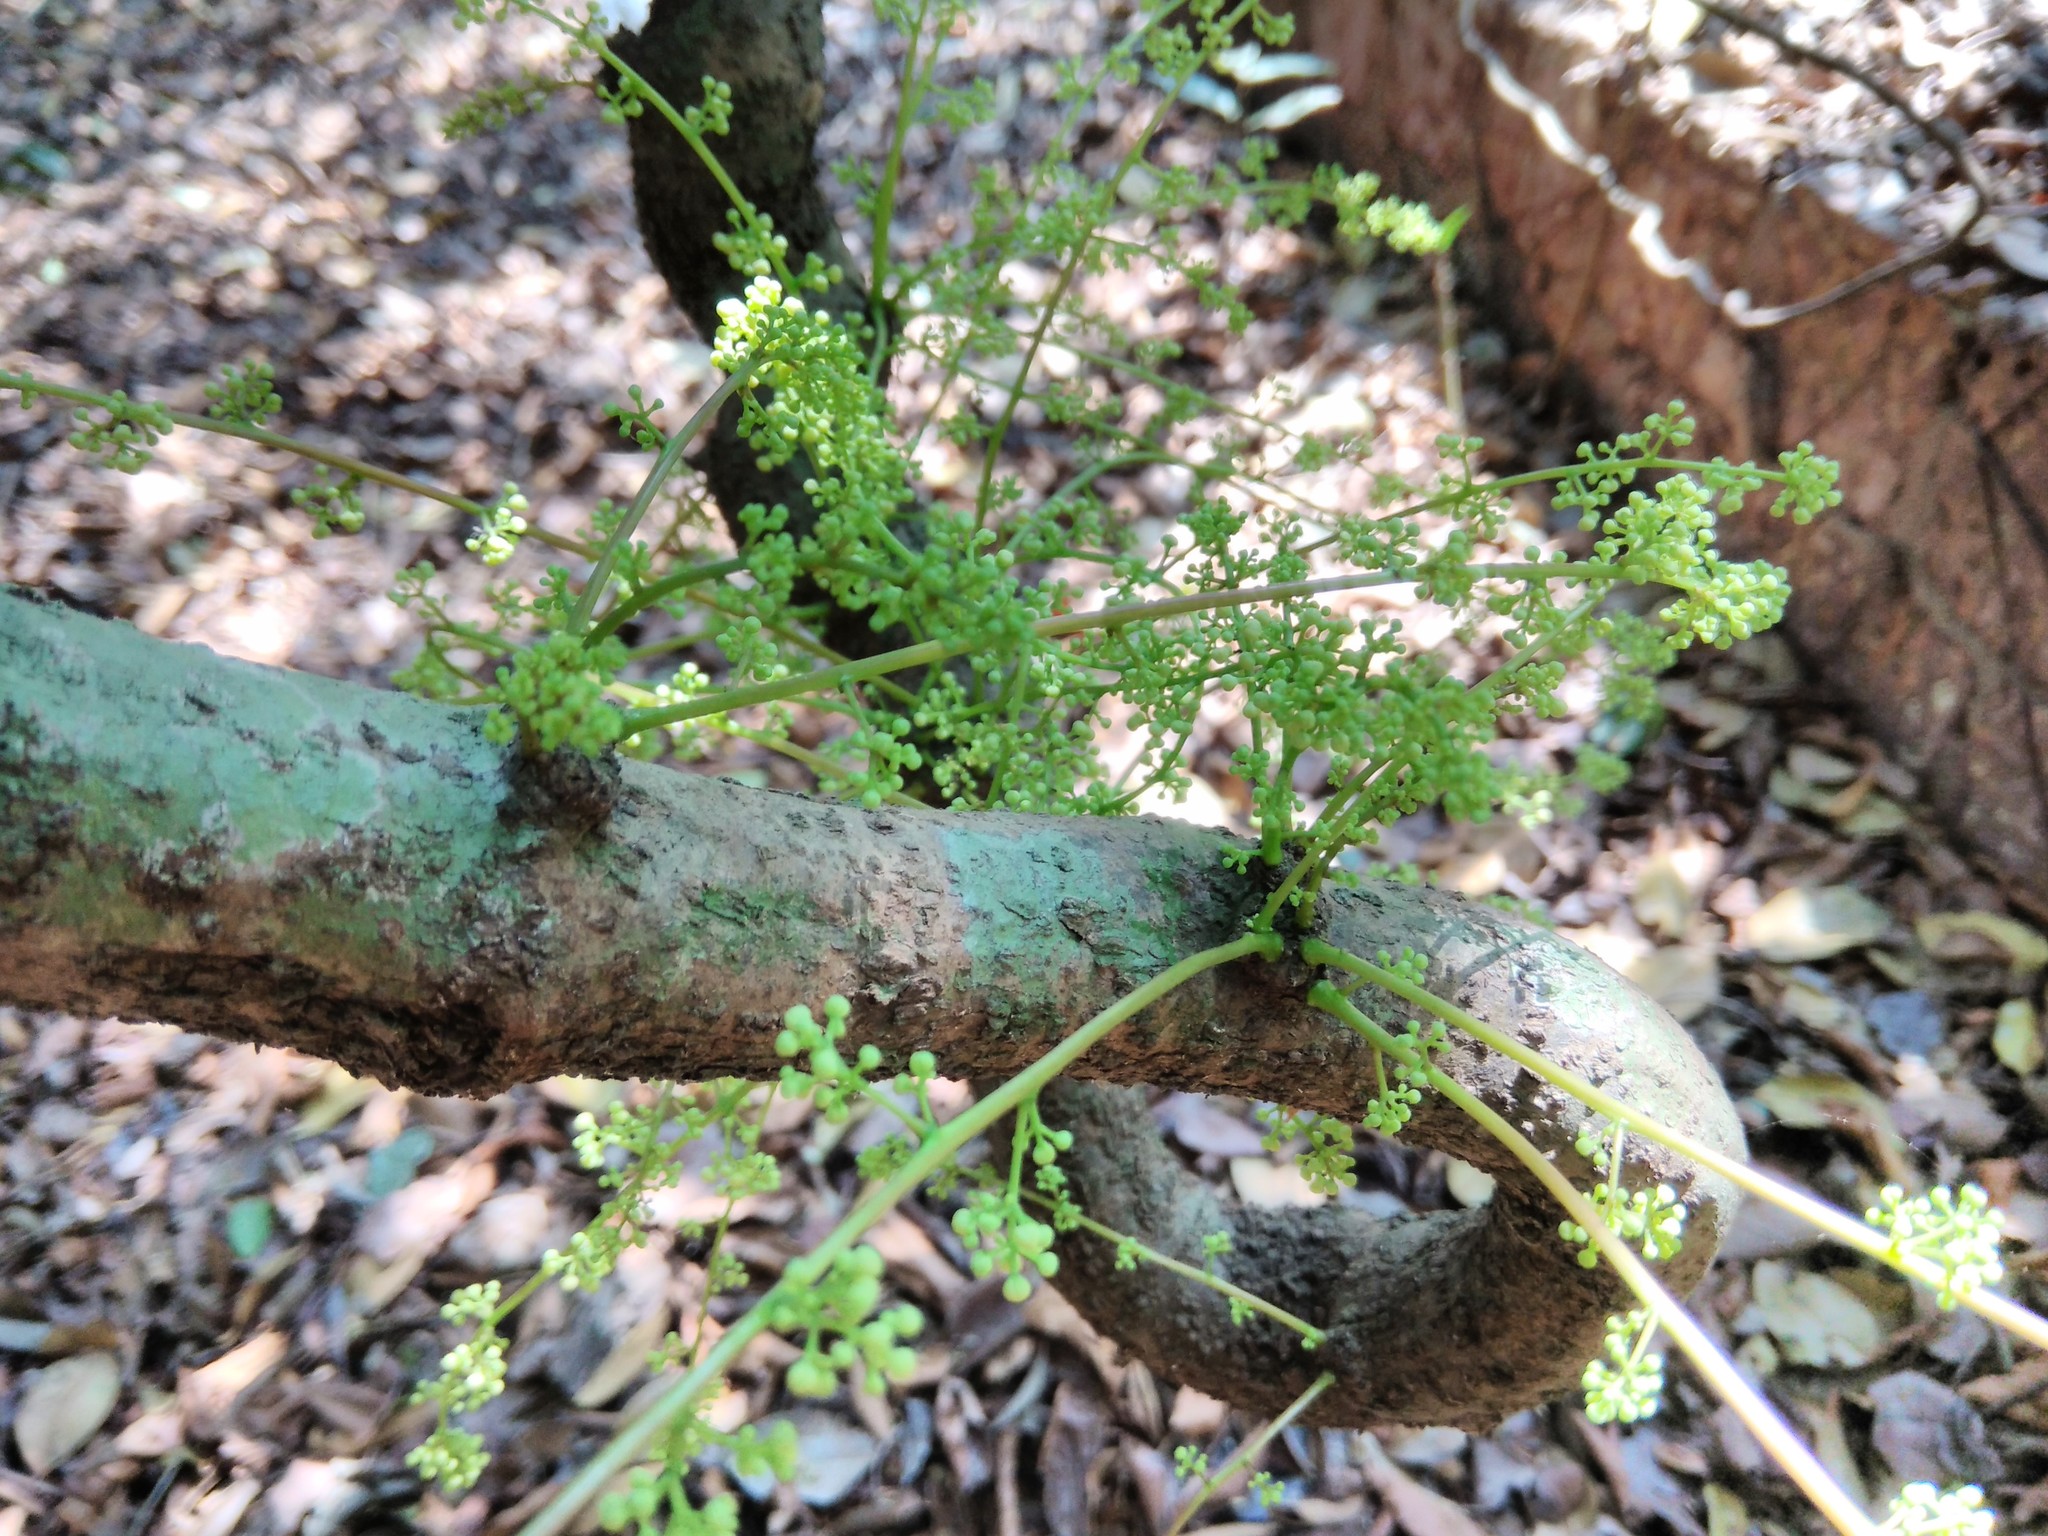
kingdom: Plantae
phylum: Tracheophyta
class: Magnoliopsida
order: Ranunculales
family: Menispermaceae
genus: Diploclisia
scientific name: Diploclisia glaucescens
